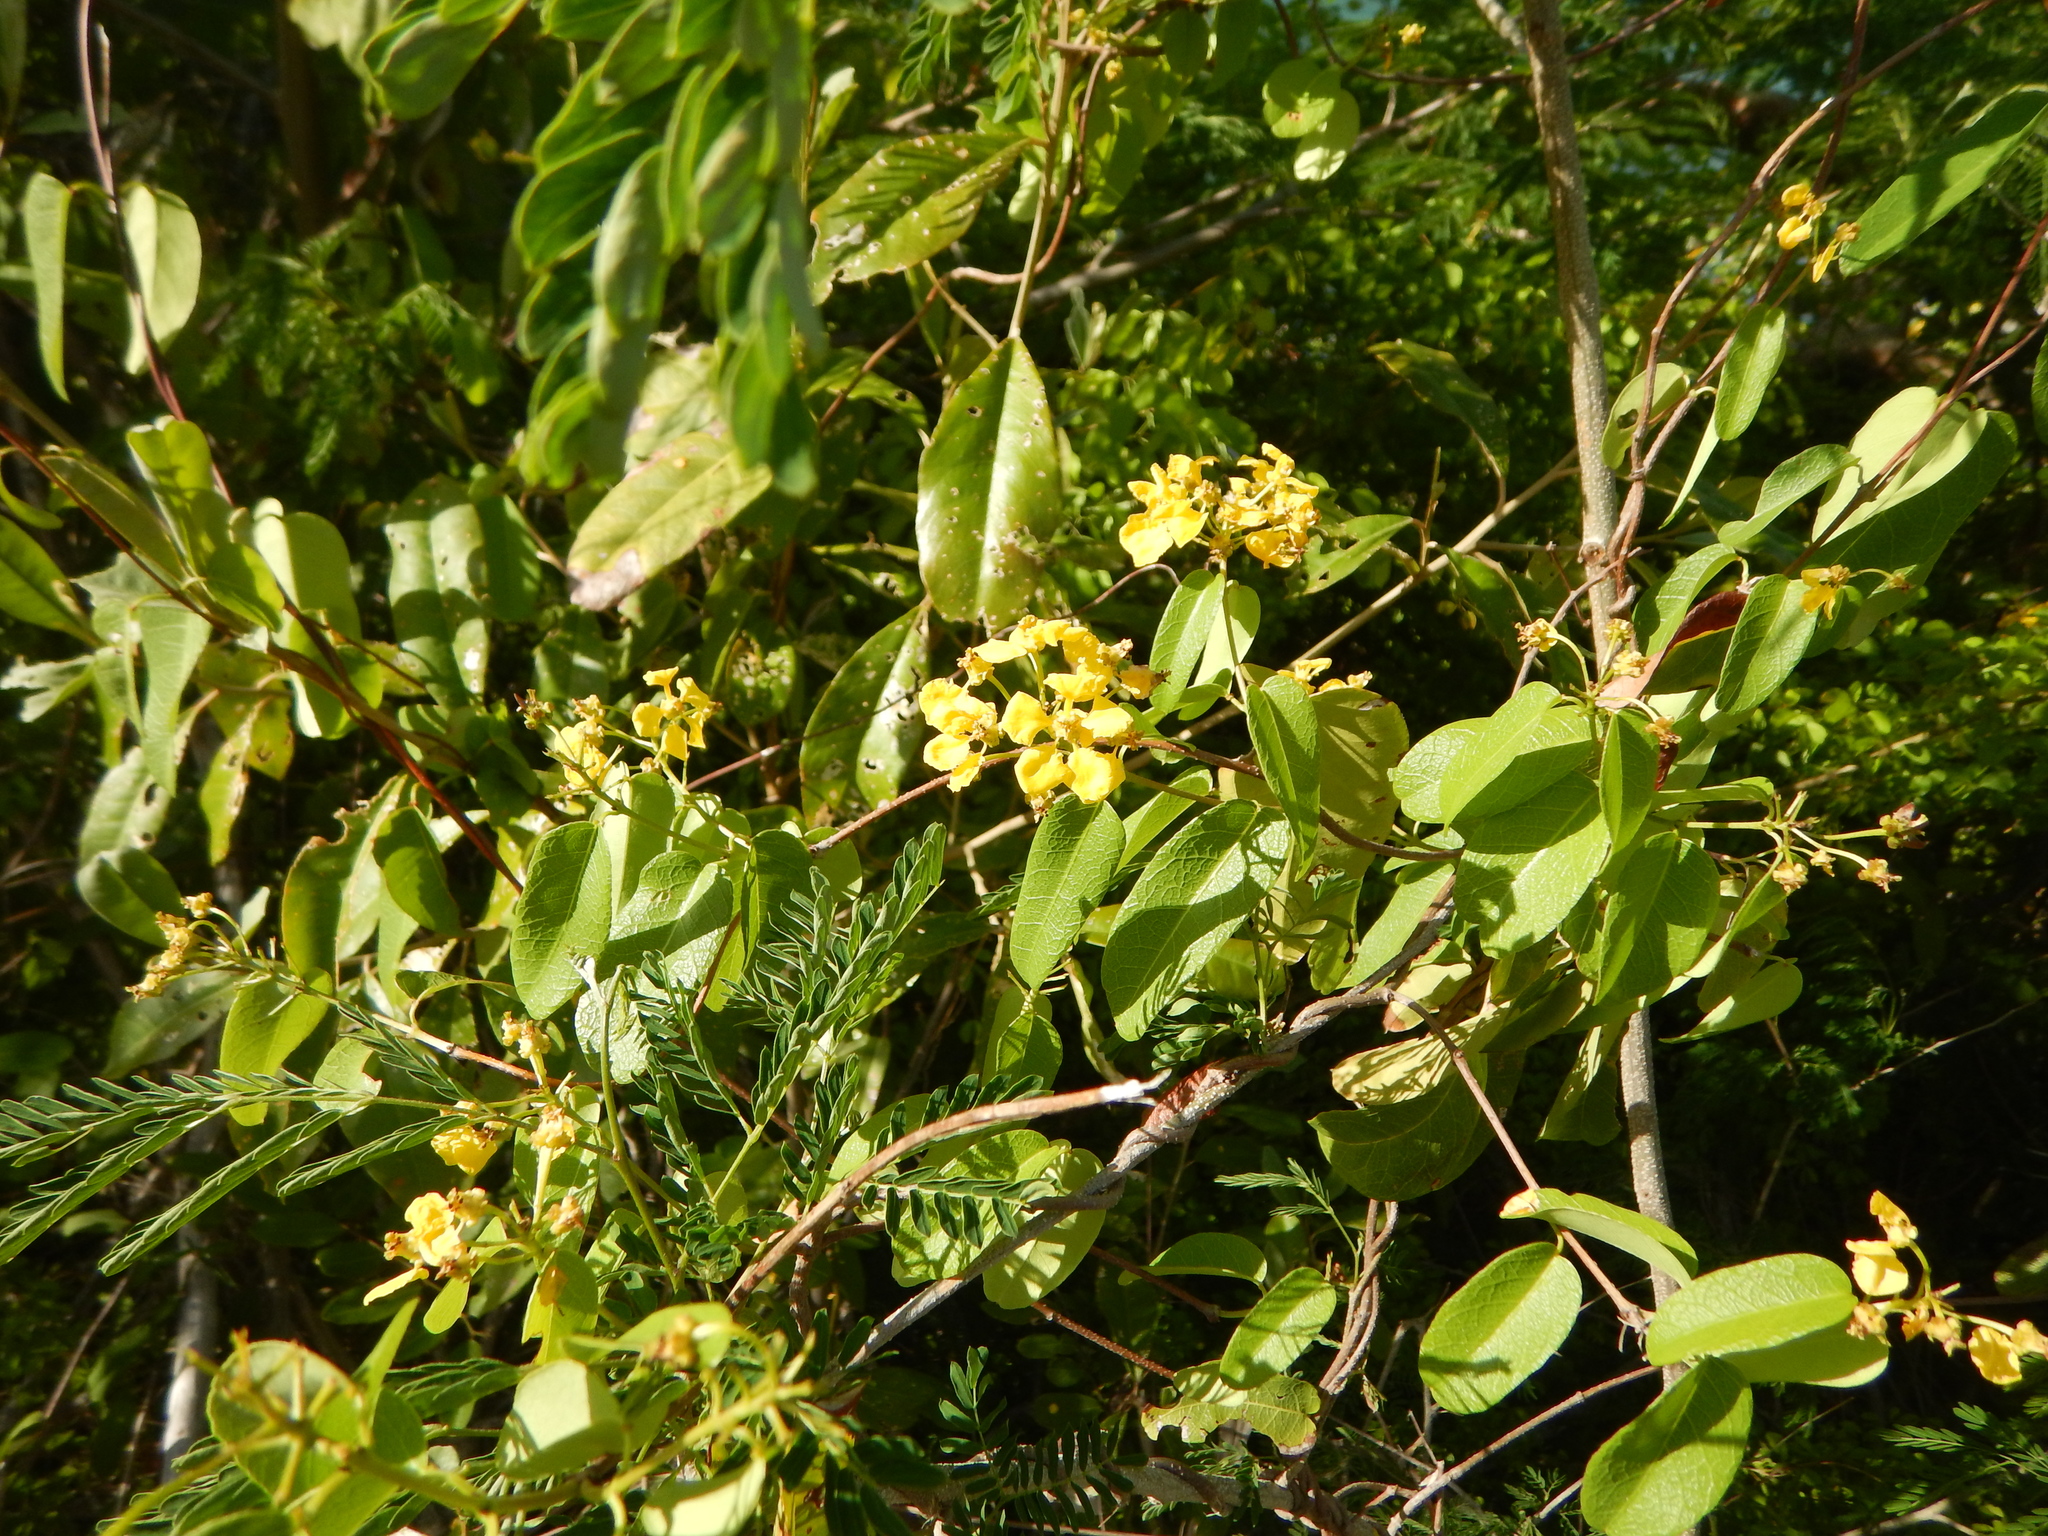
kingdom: Plantae
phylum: Tracheophyta
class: Magnoliopsida
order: Malpighiales
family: Malpighiaceae
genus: Stigmaphyllon
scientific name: Stigmaphyllon emarginatum
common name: Monarch amazonvine
